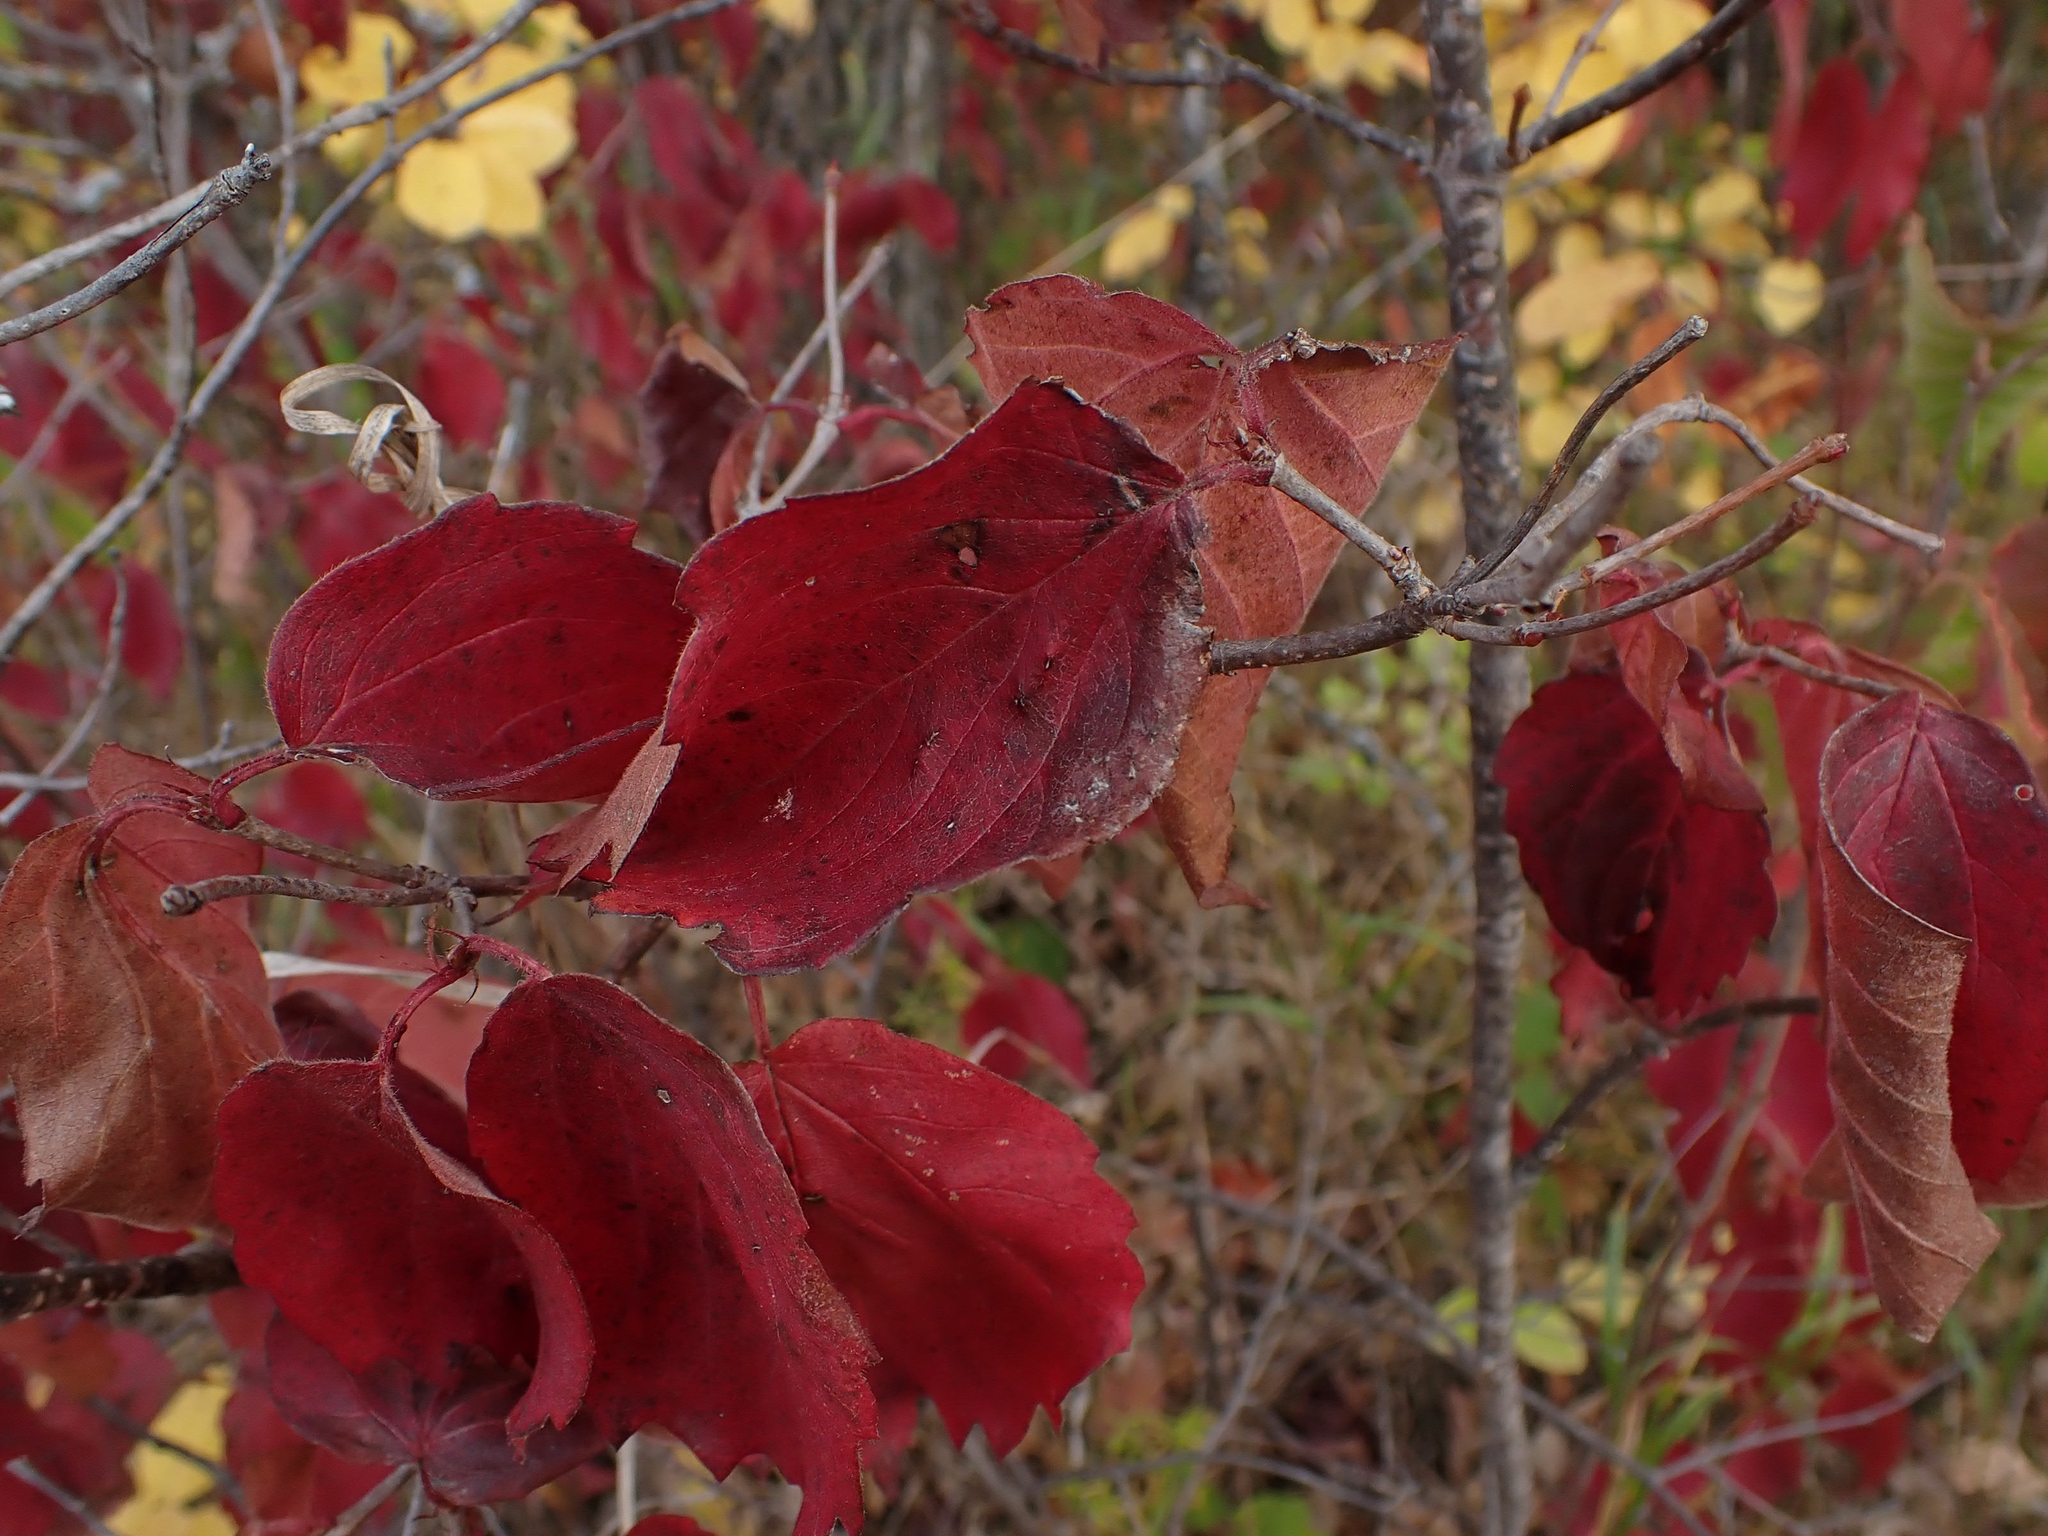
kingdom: Plantae
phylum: Tracheophyta
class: Magnoliopsida
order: Dipsacales
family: Viburnaceae
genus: Viburnum
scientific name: Viburnum rafinesqueanum
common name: Downy arrow-wood
